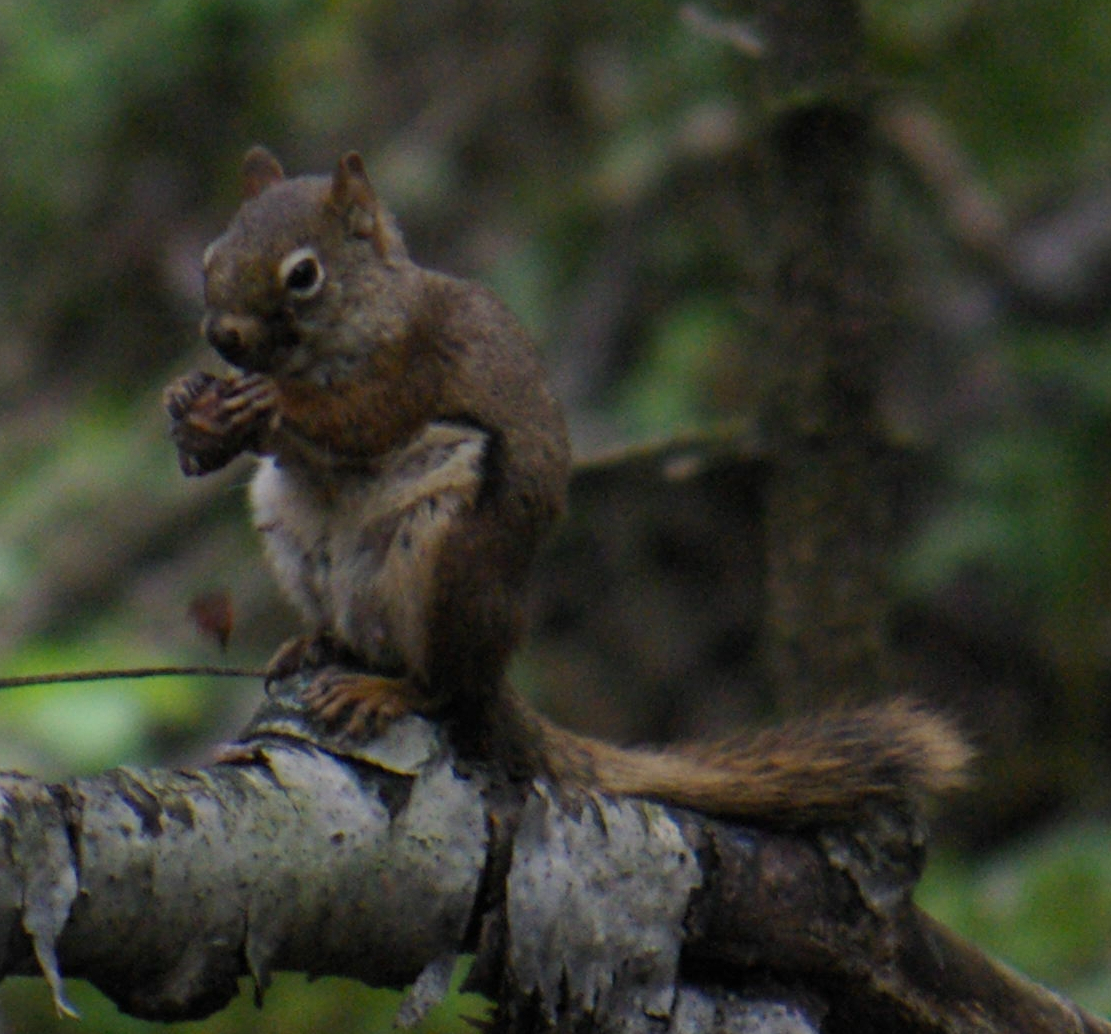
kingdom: Animalia
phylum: Chordata
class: Mammalia
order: Rodentia
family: Sciuridae
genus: Tamiasciurus
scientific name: Tamiasciurus hudsonicus
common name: Red squirrel
